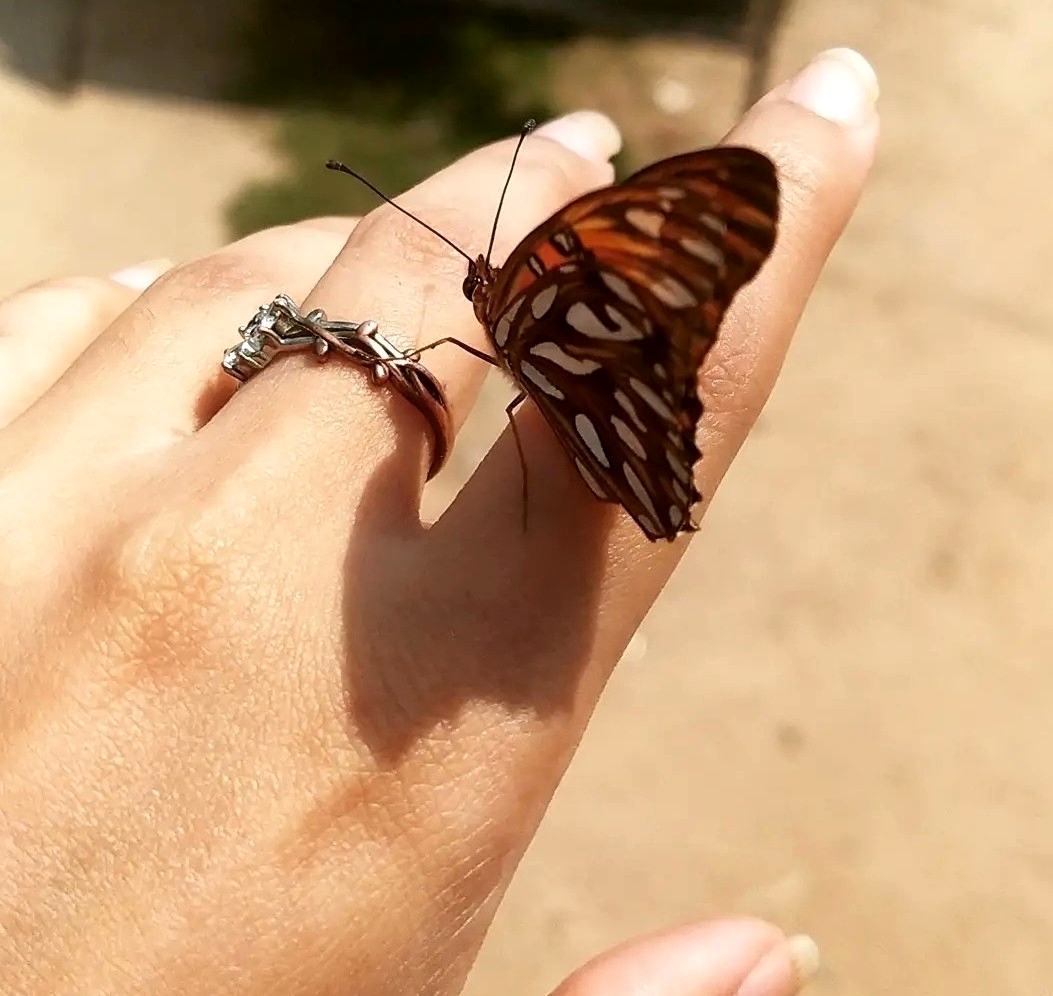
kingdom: Animalia
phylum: Arthropoda
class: Insecta
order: Lepidoptera
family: Nymphalidae
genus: Dione
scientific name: Dione vanillae
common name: Gulf fritillary
